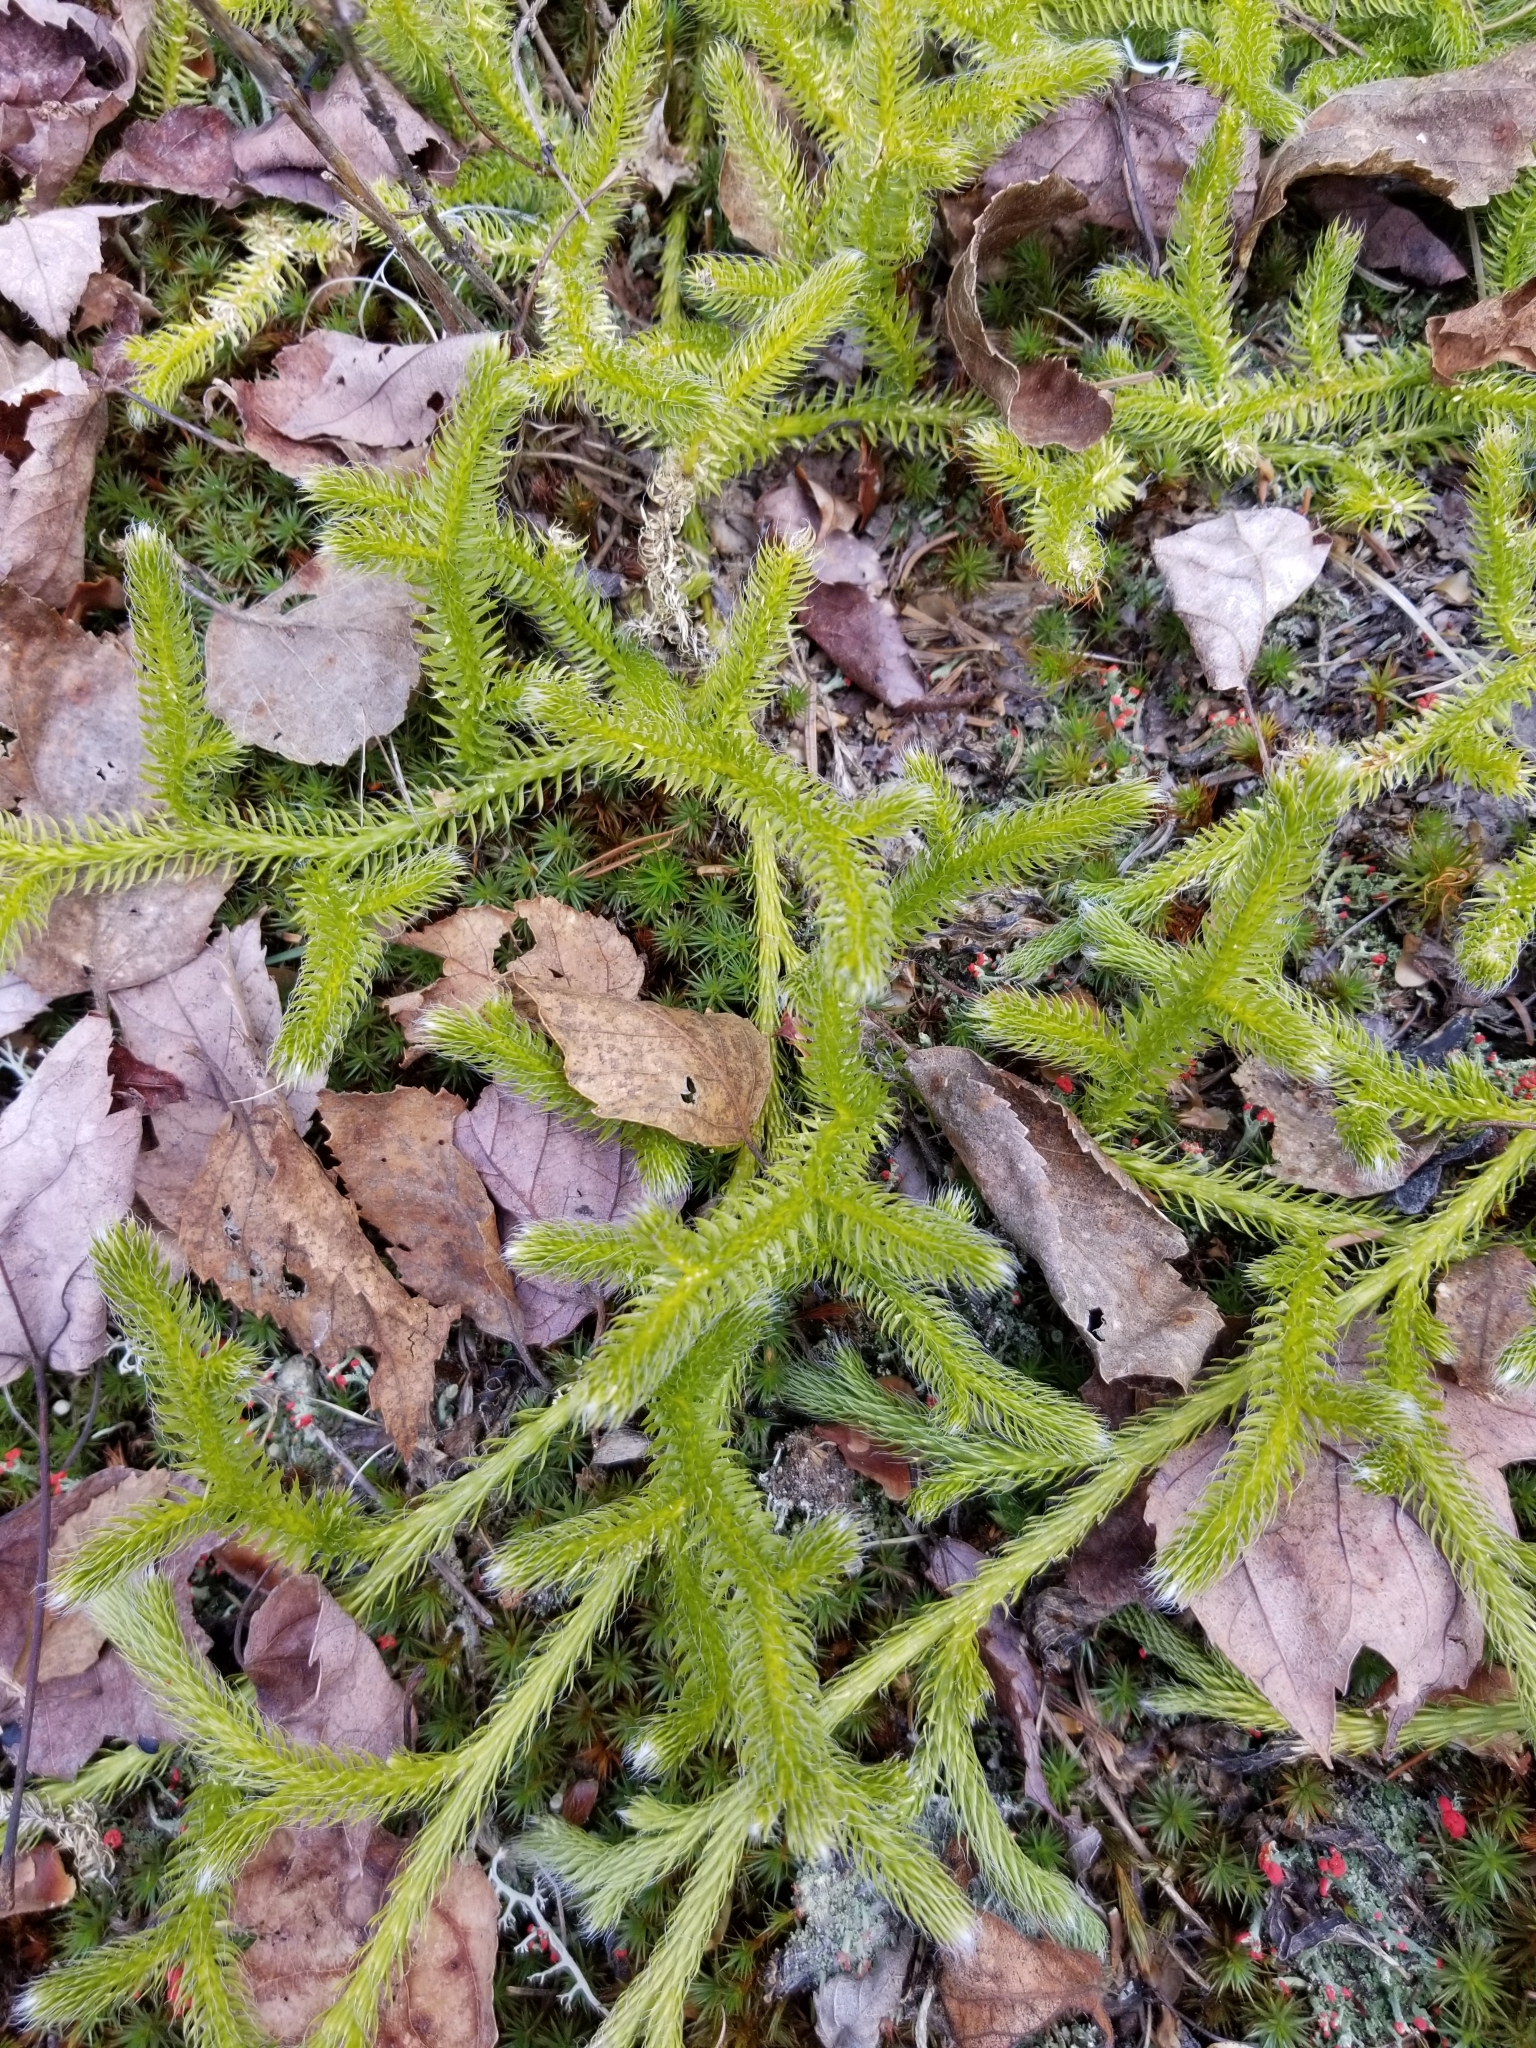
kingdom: Plantae
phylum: Tracheophyta
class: Lycopodiopsida
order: Lycopodiales
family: Lycopodiaceae
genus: Lycopodium
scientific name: Lycopodium clavatum
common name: Stag's-horn clubmoss
